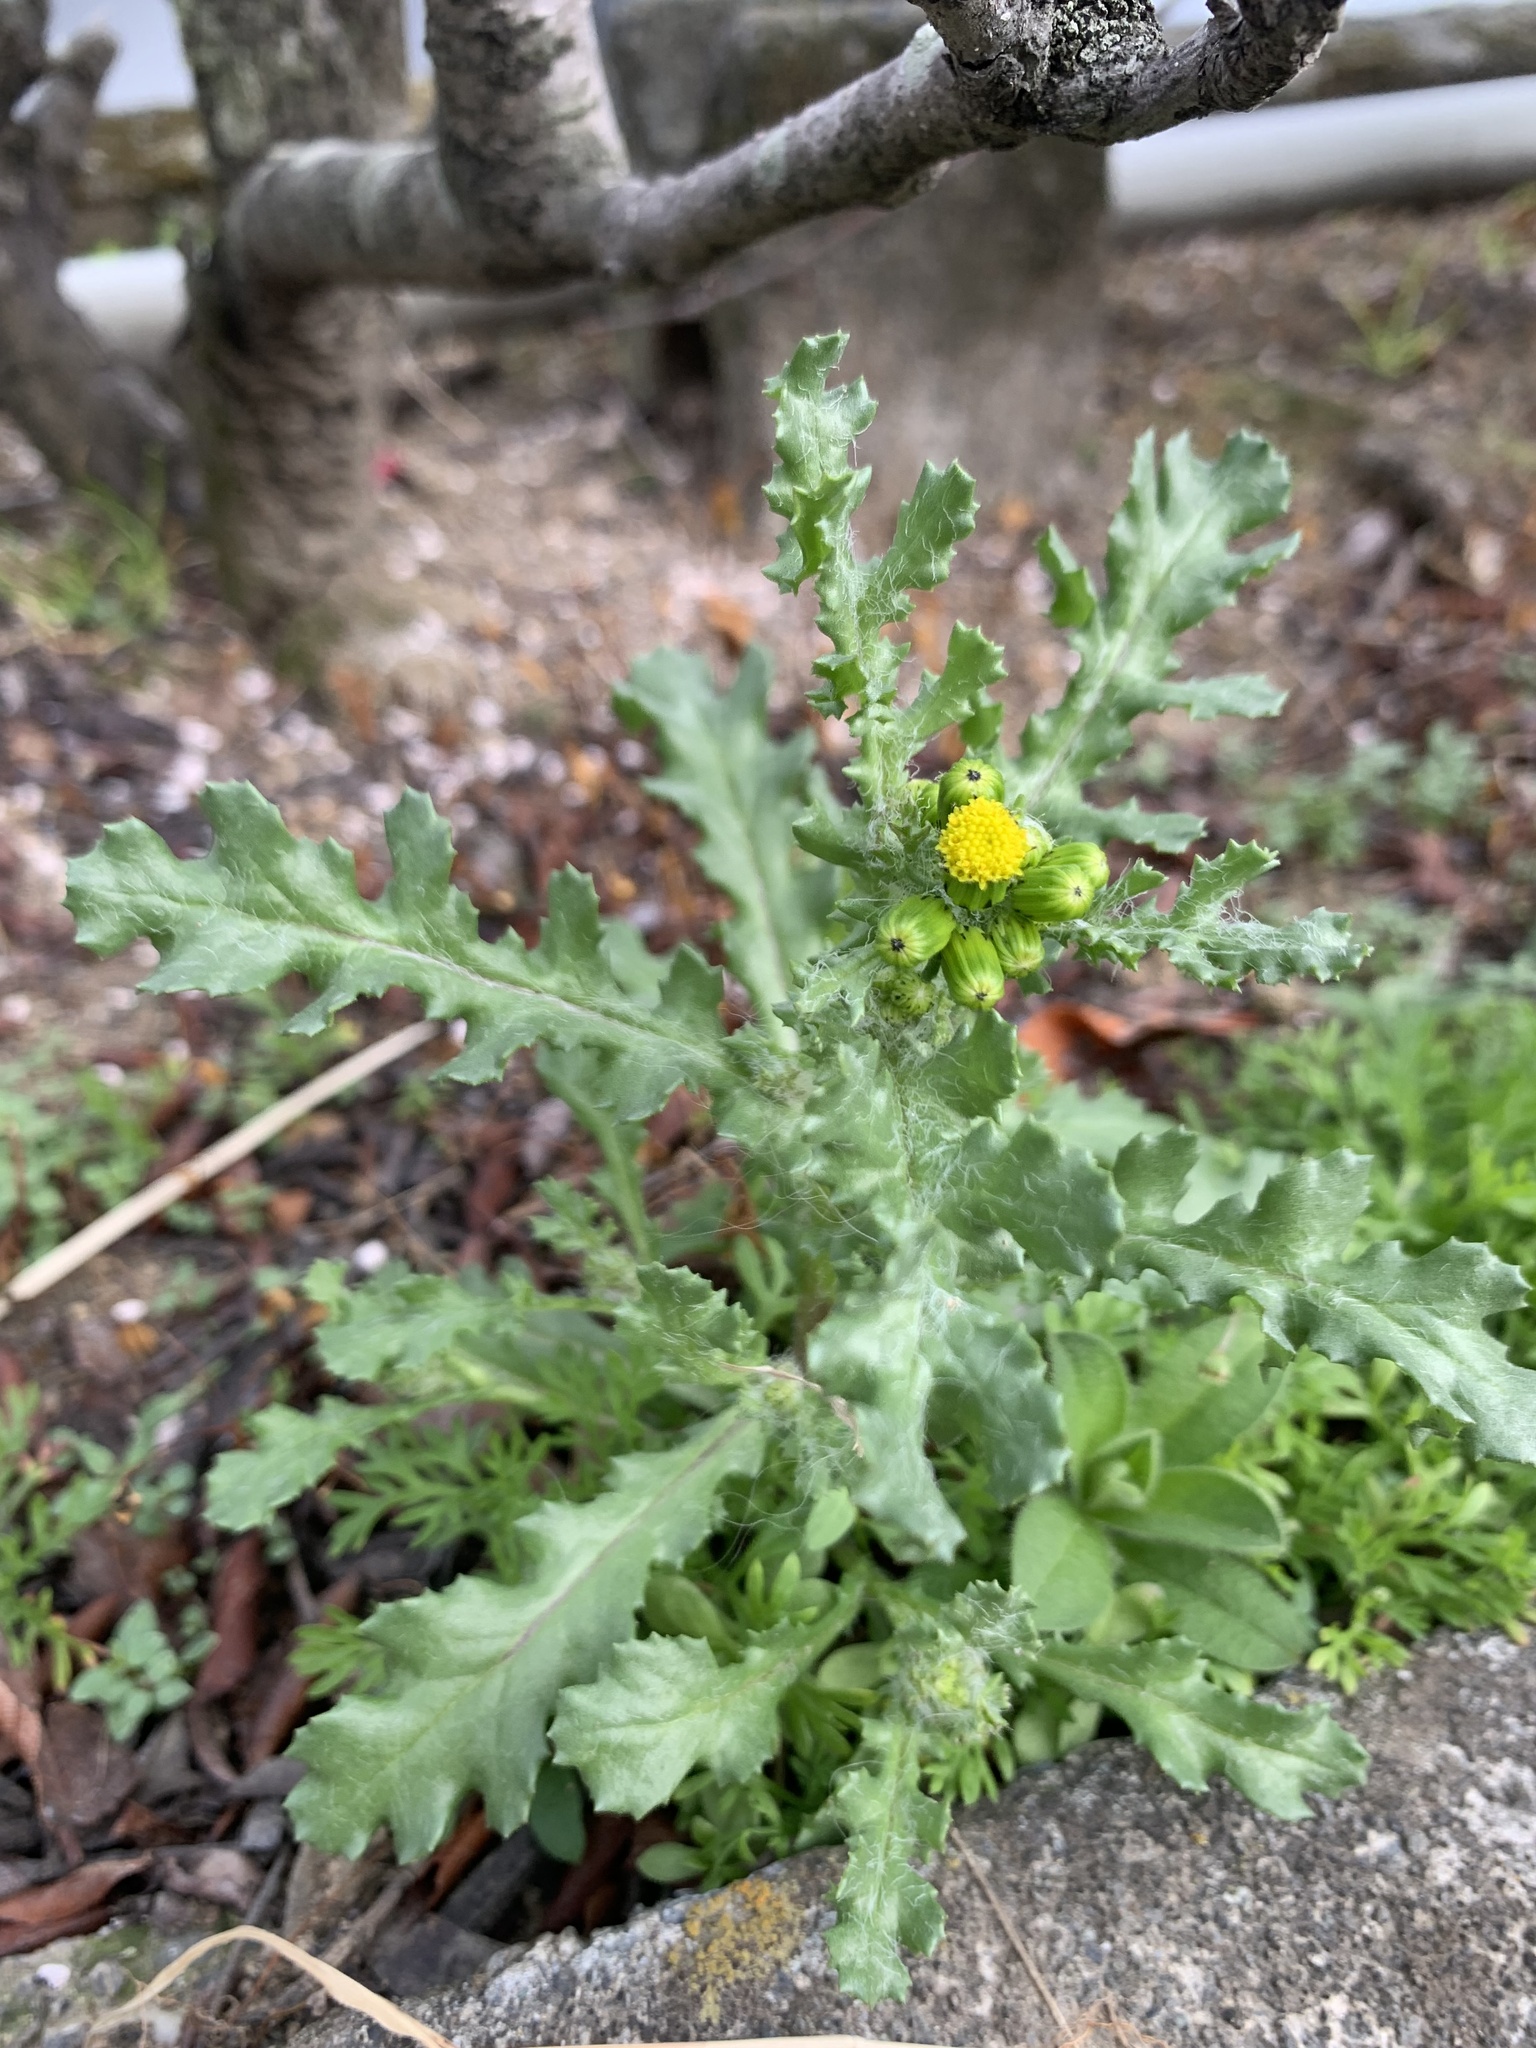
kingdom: Plantae
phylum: Tracheophyta
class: Magnoliopsida
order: Asterales
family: Asteraceae
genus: Senecio
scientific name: Senecio vulgaris
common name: Old-man-in-the-spring
